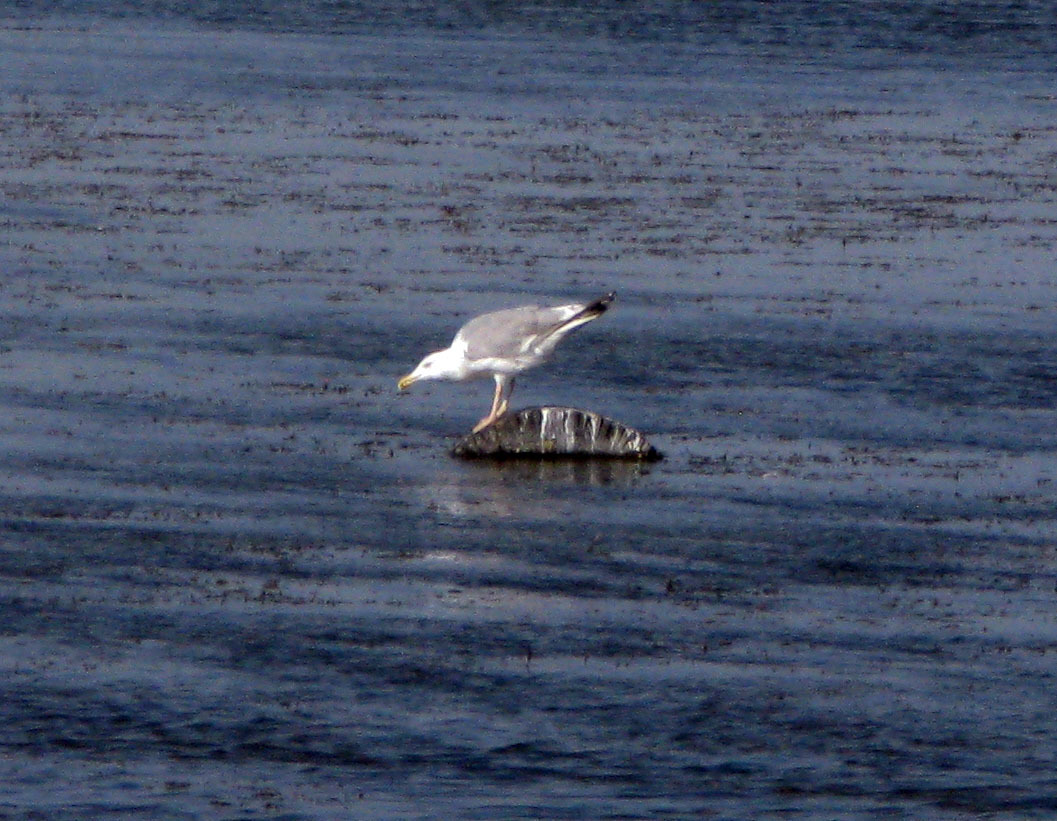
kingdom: Animalia
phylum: Chordata
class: Aves
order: Charadriiformes
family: Laridae
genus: Larus
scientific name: Larus cachinnans
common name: Caspian gull
